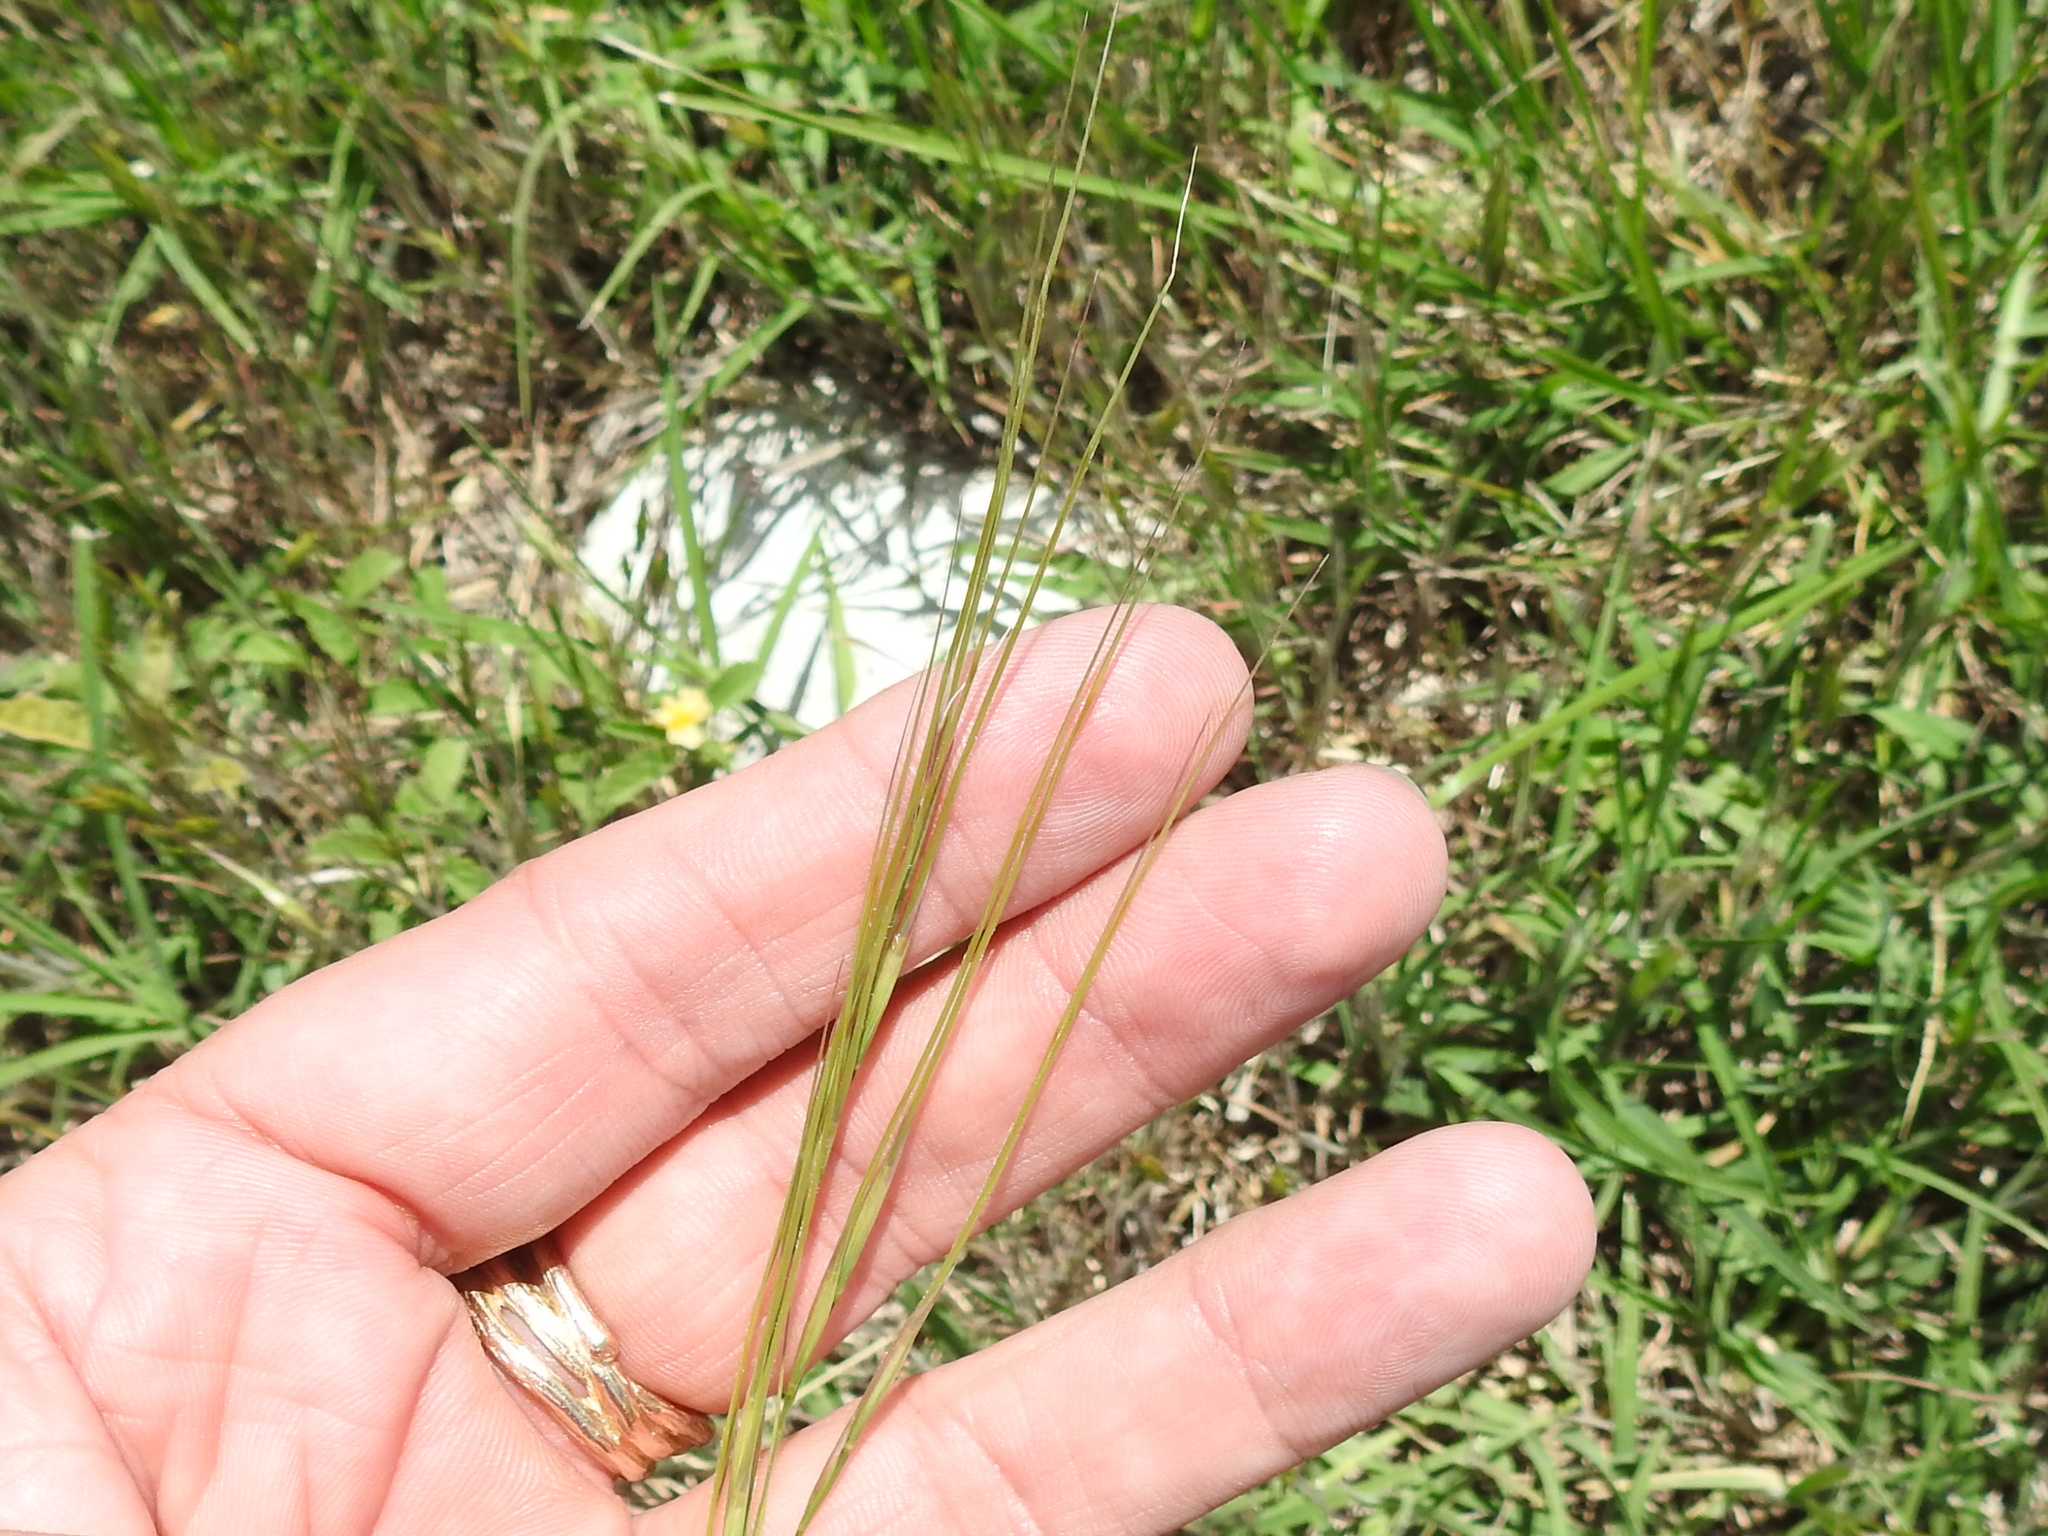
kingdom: Plantae
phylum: Tracheophyta
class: Liliopsida
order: Poales
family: Poaceae
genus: Nassella
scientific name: Nassella leucotricha
